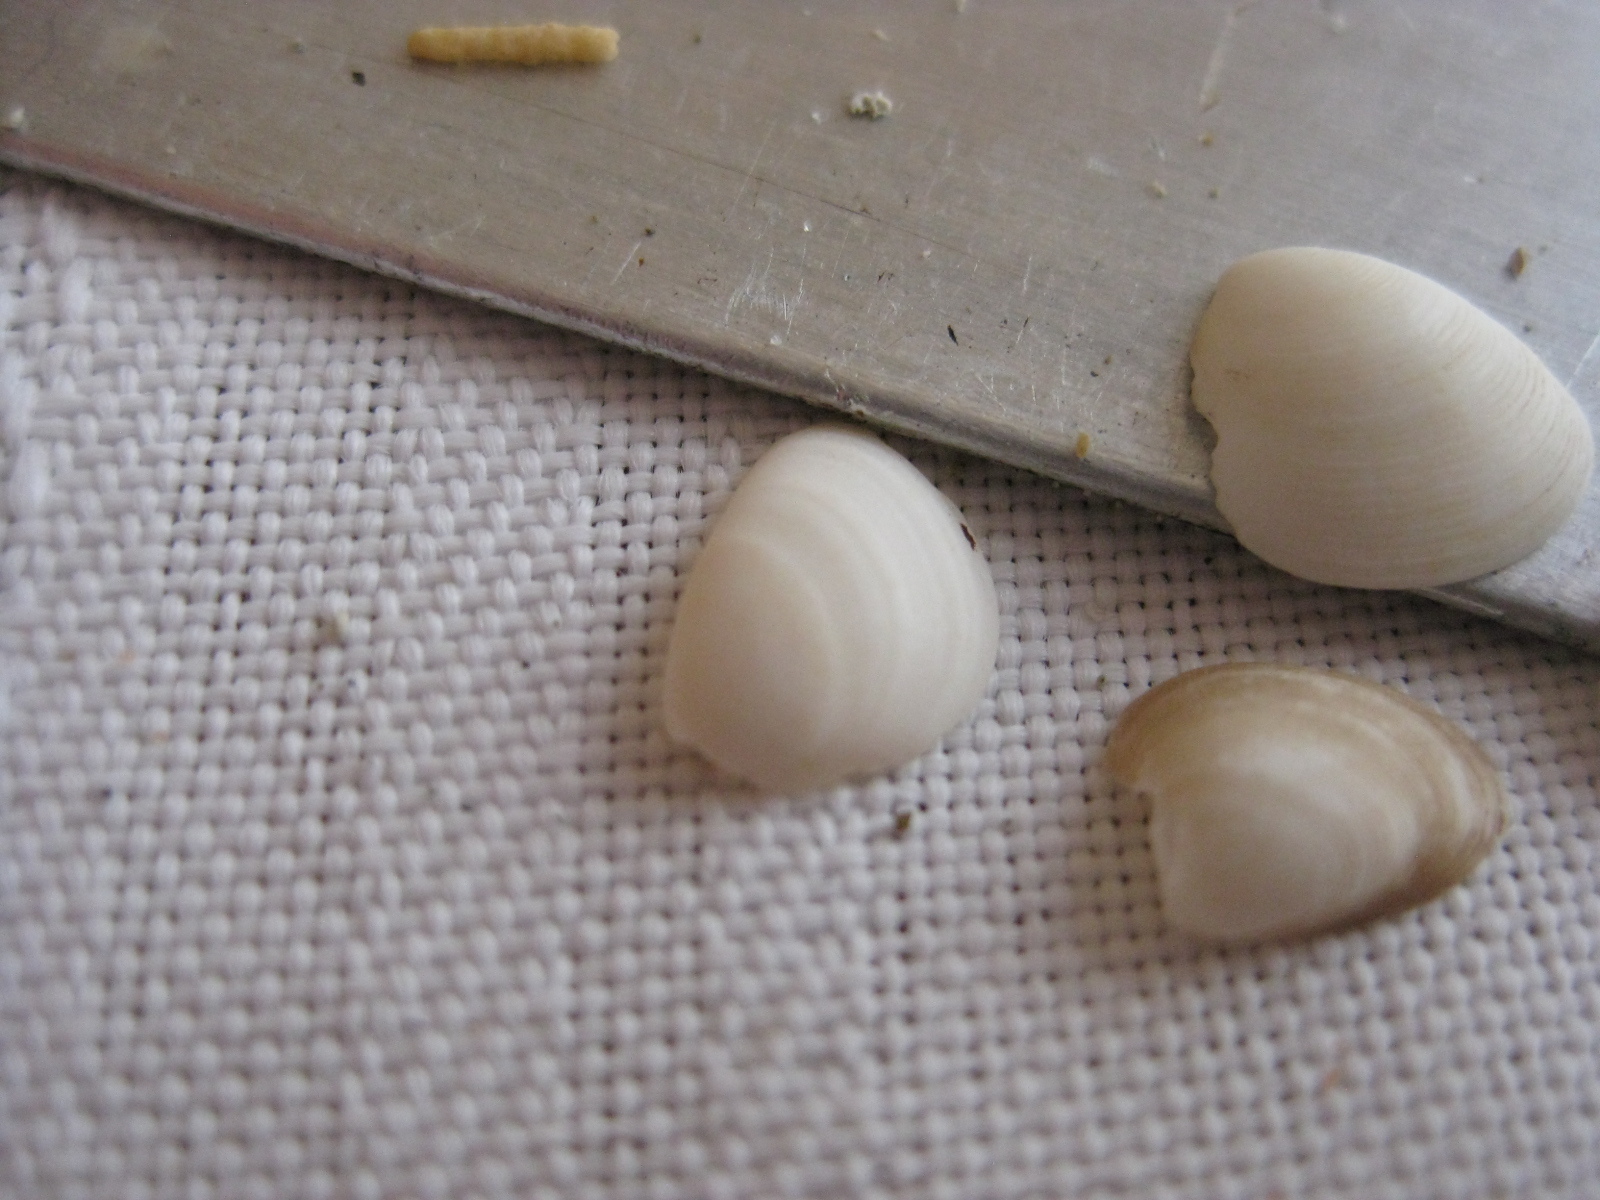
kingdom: Animalia
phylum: Mollusca
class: Bivalvia
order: Nuculida
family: Nuculidae
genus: Nucula
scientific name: Nucula nitidula
